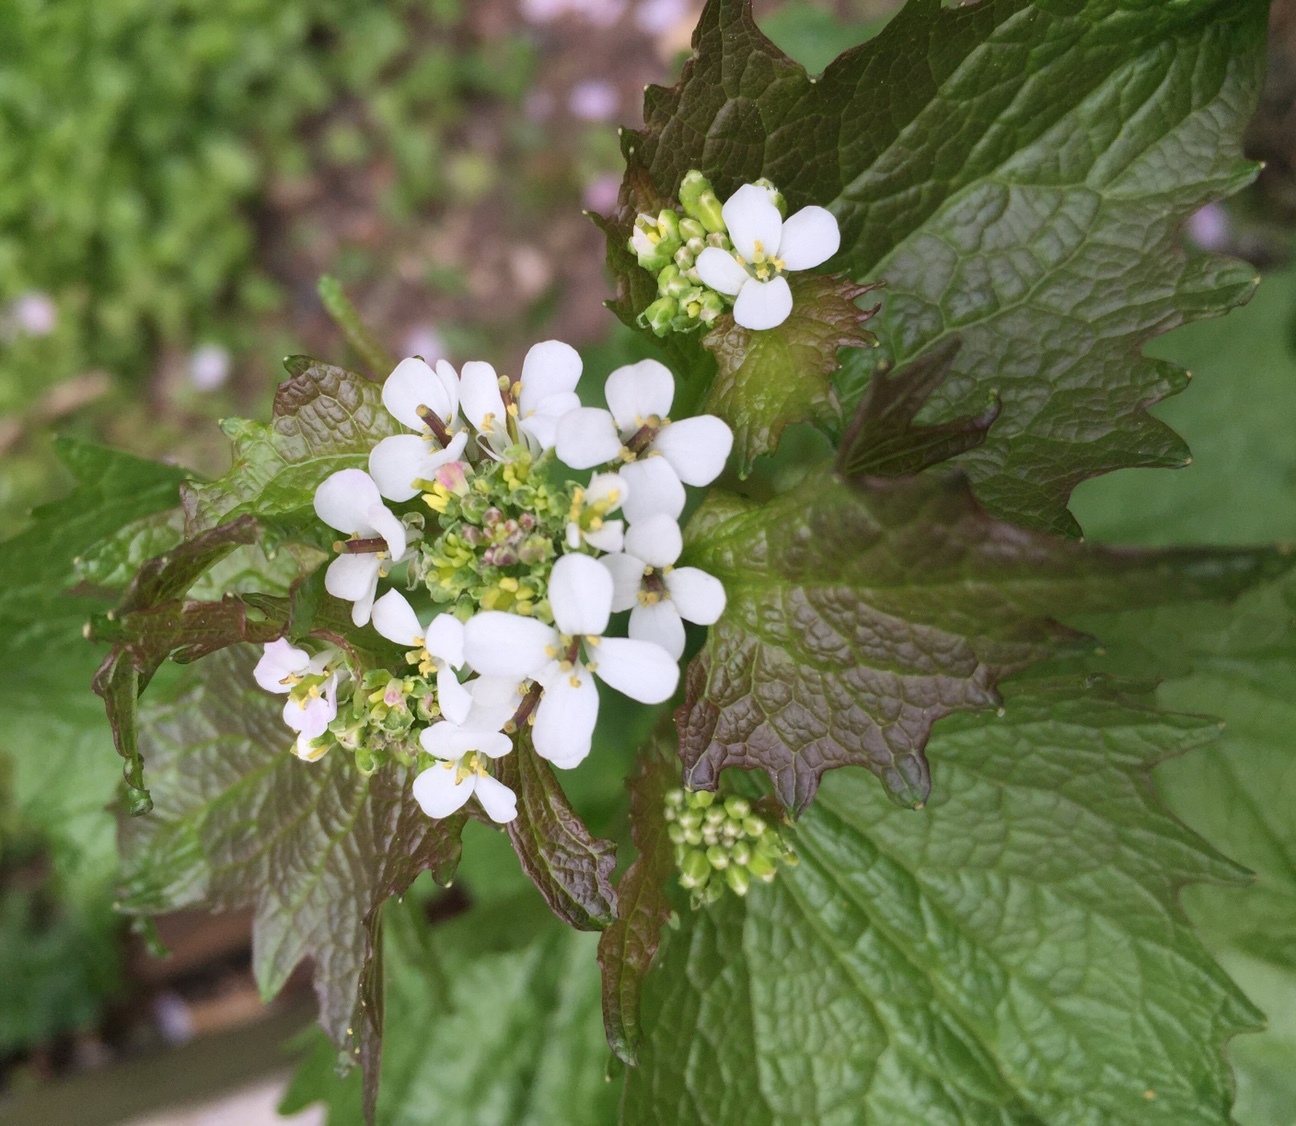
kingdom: Plantae
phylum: Tracheophyta
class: Magnoliopsida
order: Brassicales
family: Brassicaceae
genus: Alliaria
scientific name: Alliaria petiolata
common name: Garlic mustard
